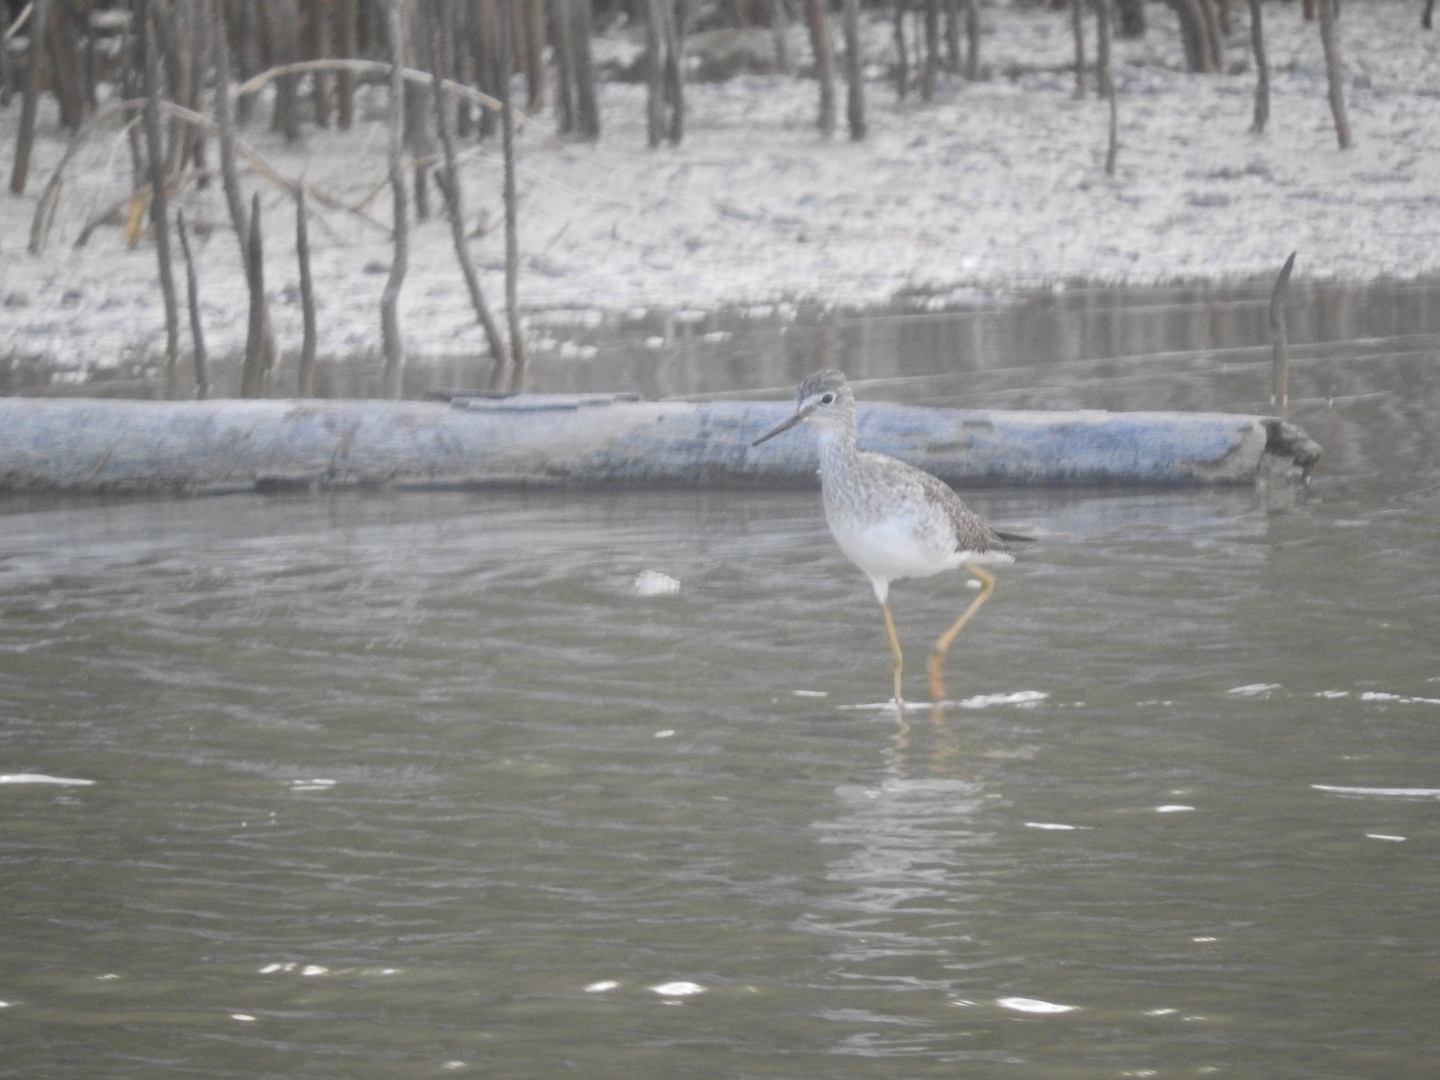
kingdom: Animalia
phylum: Chordata
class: Aves
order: Charadriiformes
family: Scolopacidae
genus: Tringa
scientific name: Tringa flavipes
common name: Lesser yellowlegs
